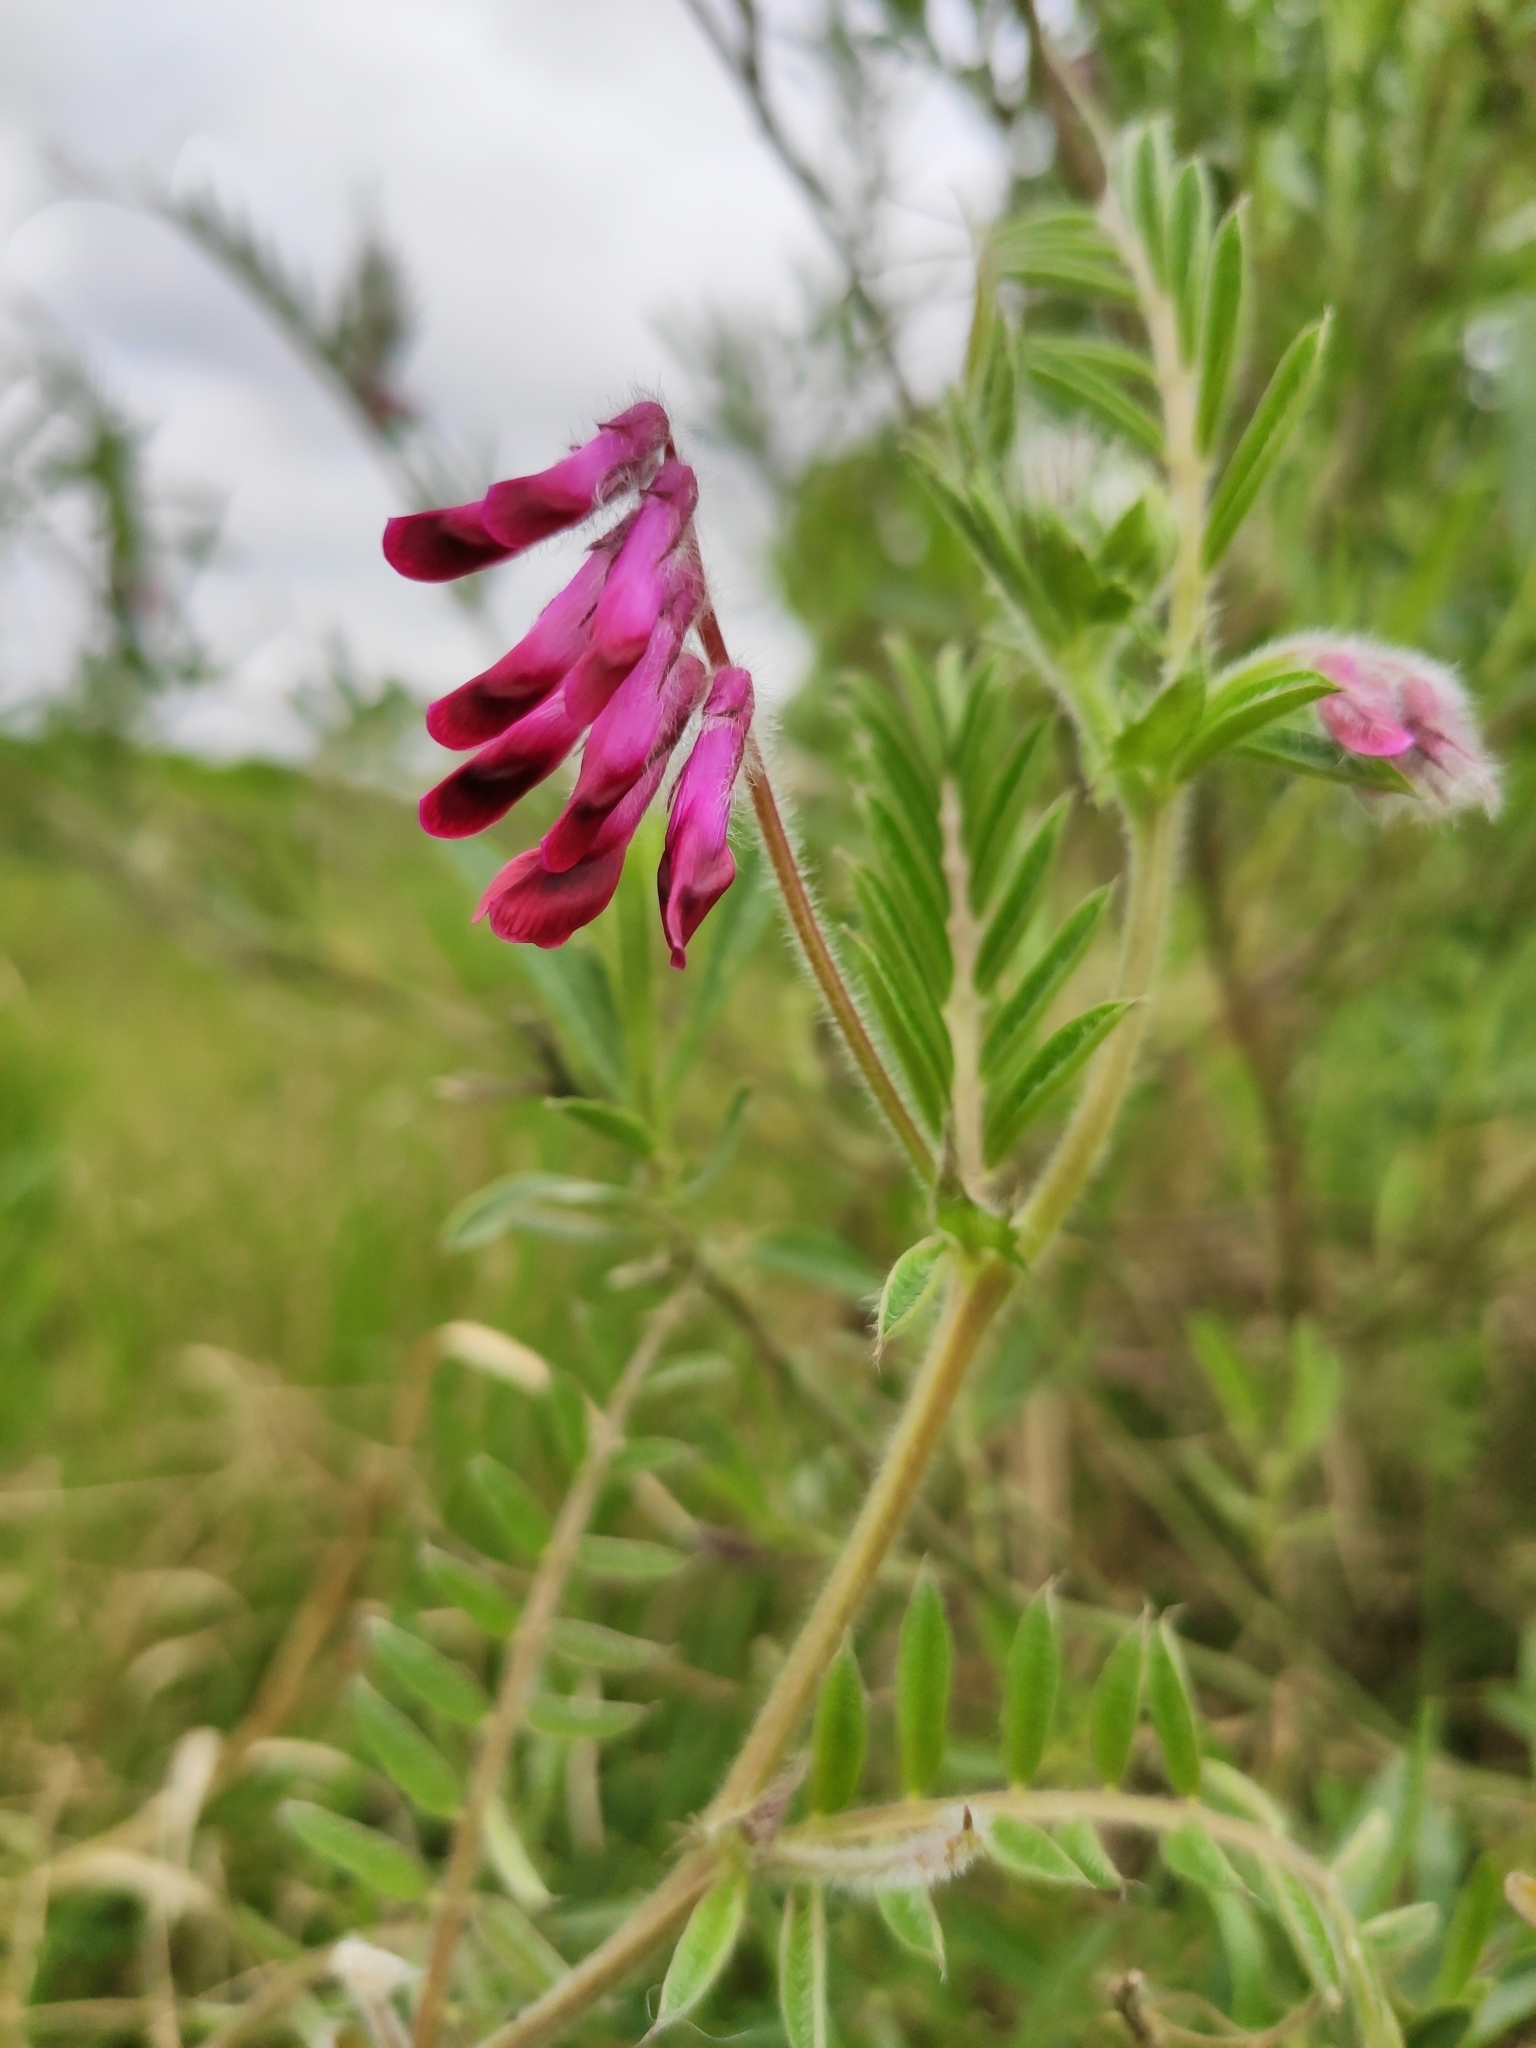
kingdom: Plantae
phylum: Tracheophyta
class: Magnoliopsida
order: Fabales
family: Fabaceae
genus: Vicia
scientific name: Vicia benghalensis
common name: Purple vetch
